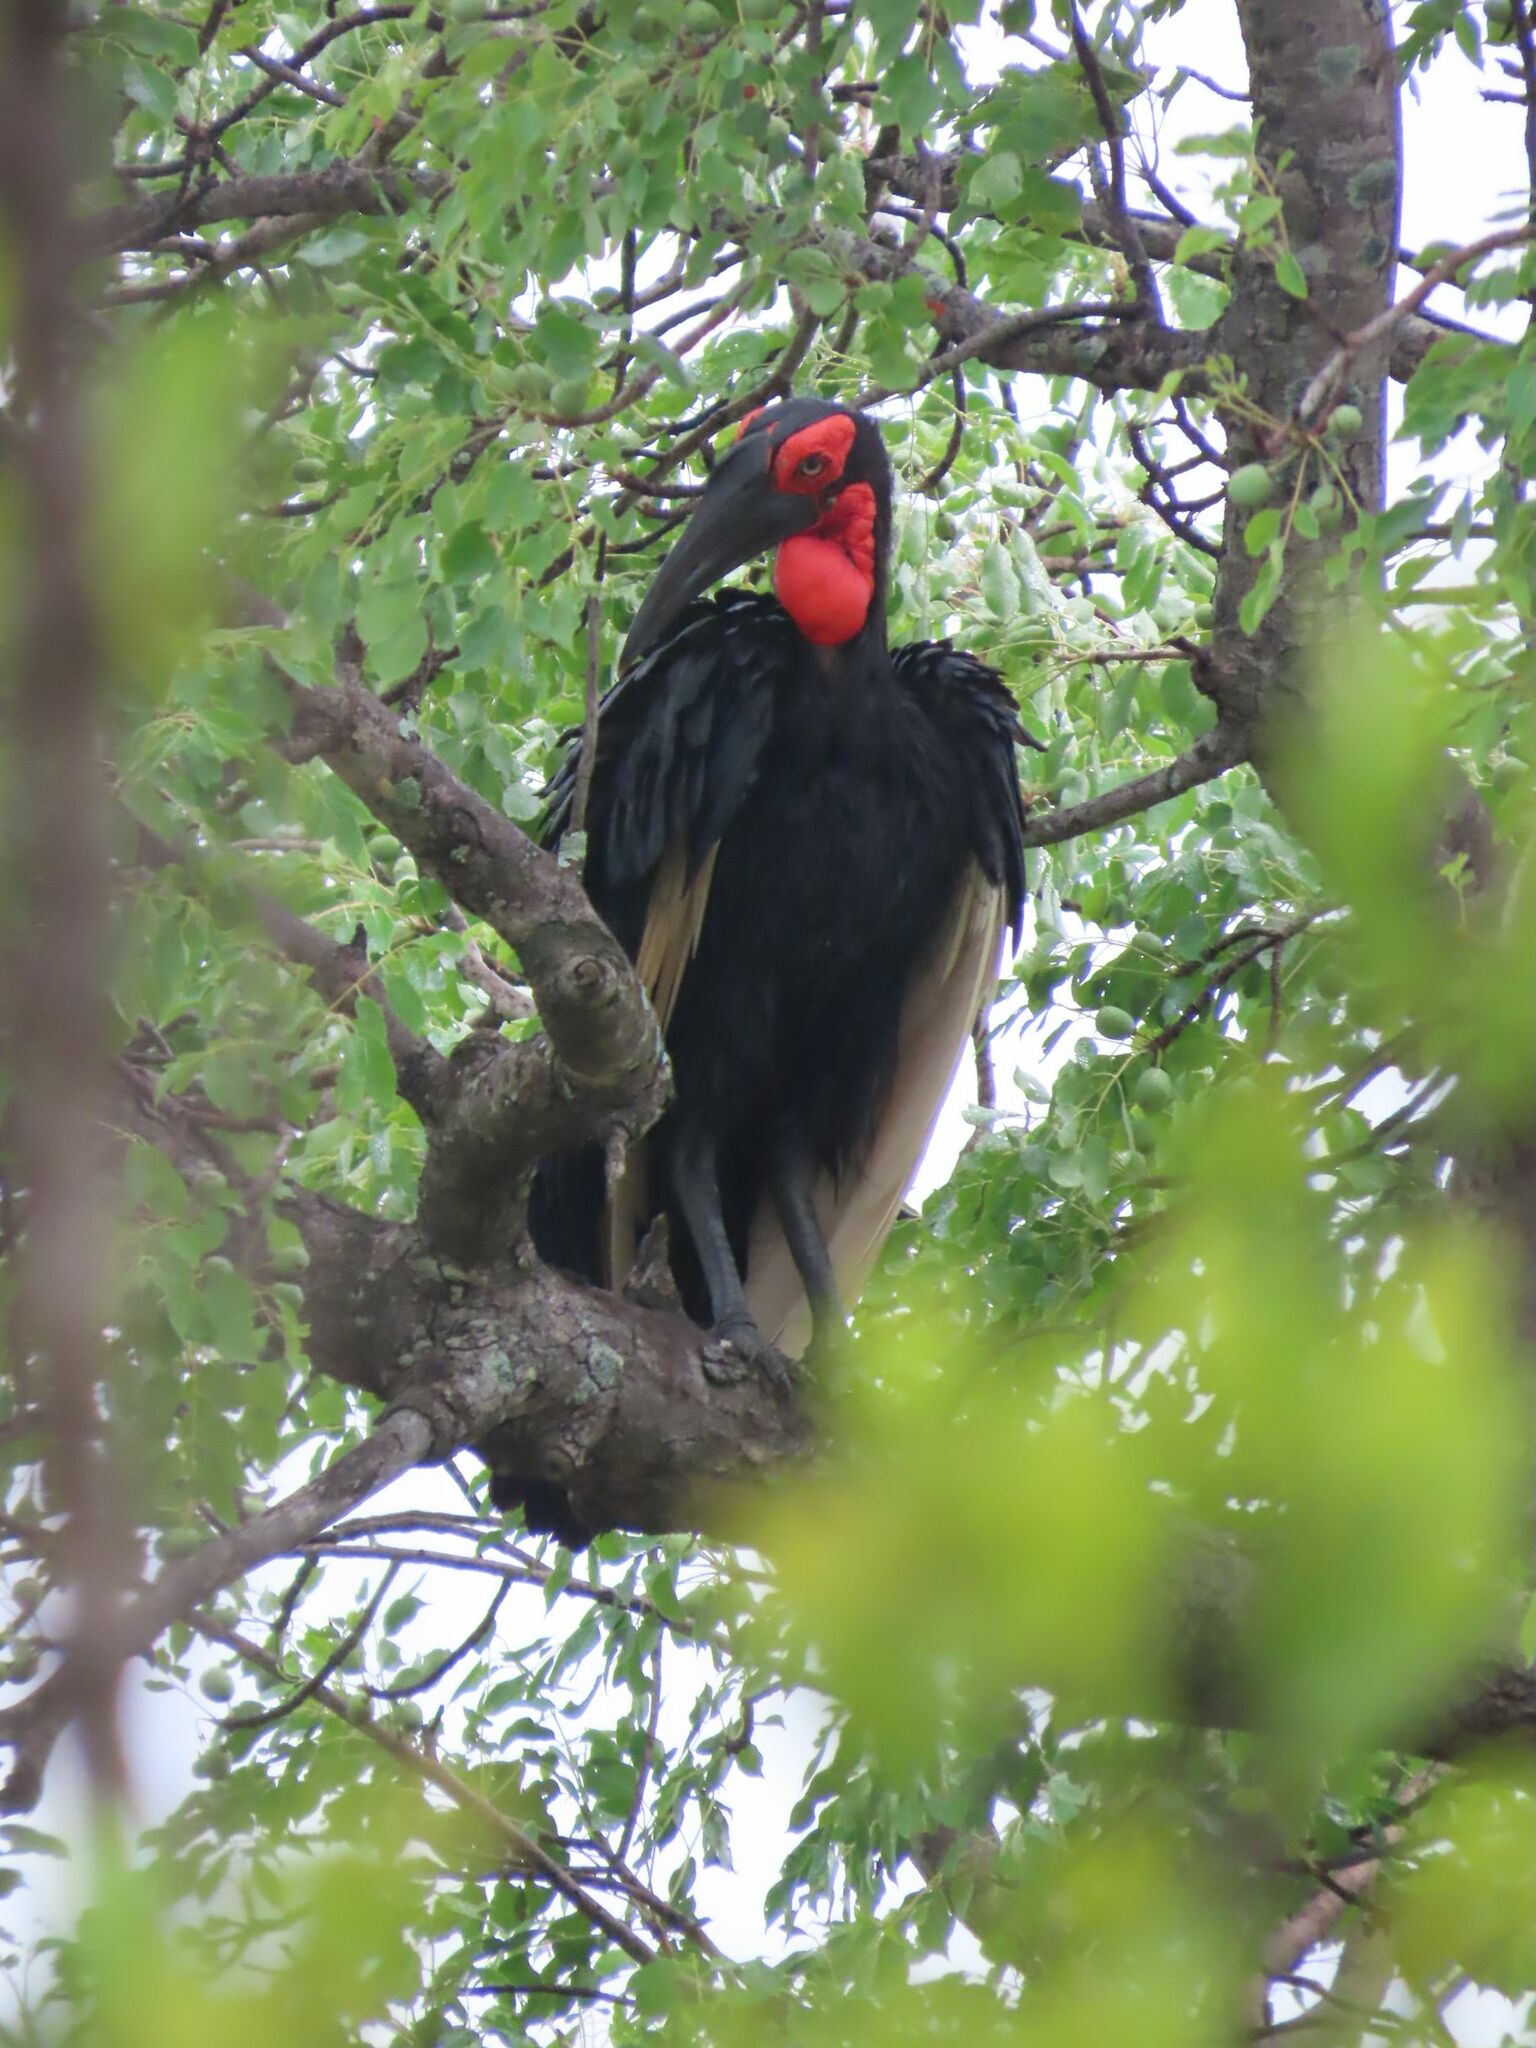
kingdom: Animalia
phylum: Chordata
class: Aves
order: Bucerotiformes
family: Bucorvidae
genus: Bucorvus
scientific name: Bucorvus leadbeateri
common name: Southern ground-hornbill
